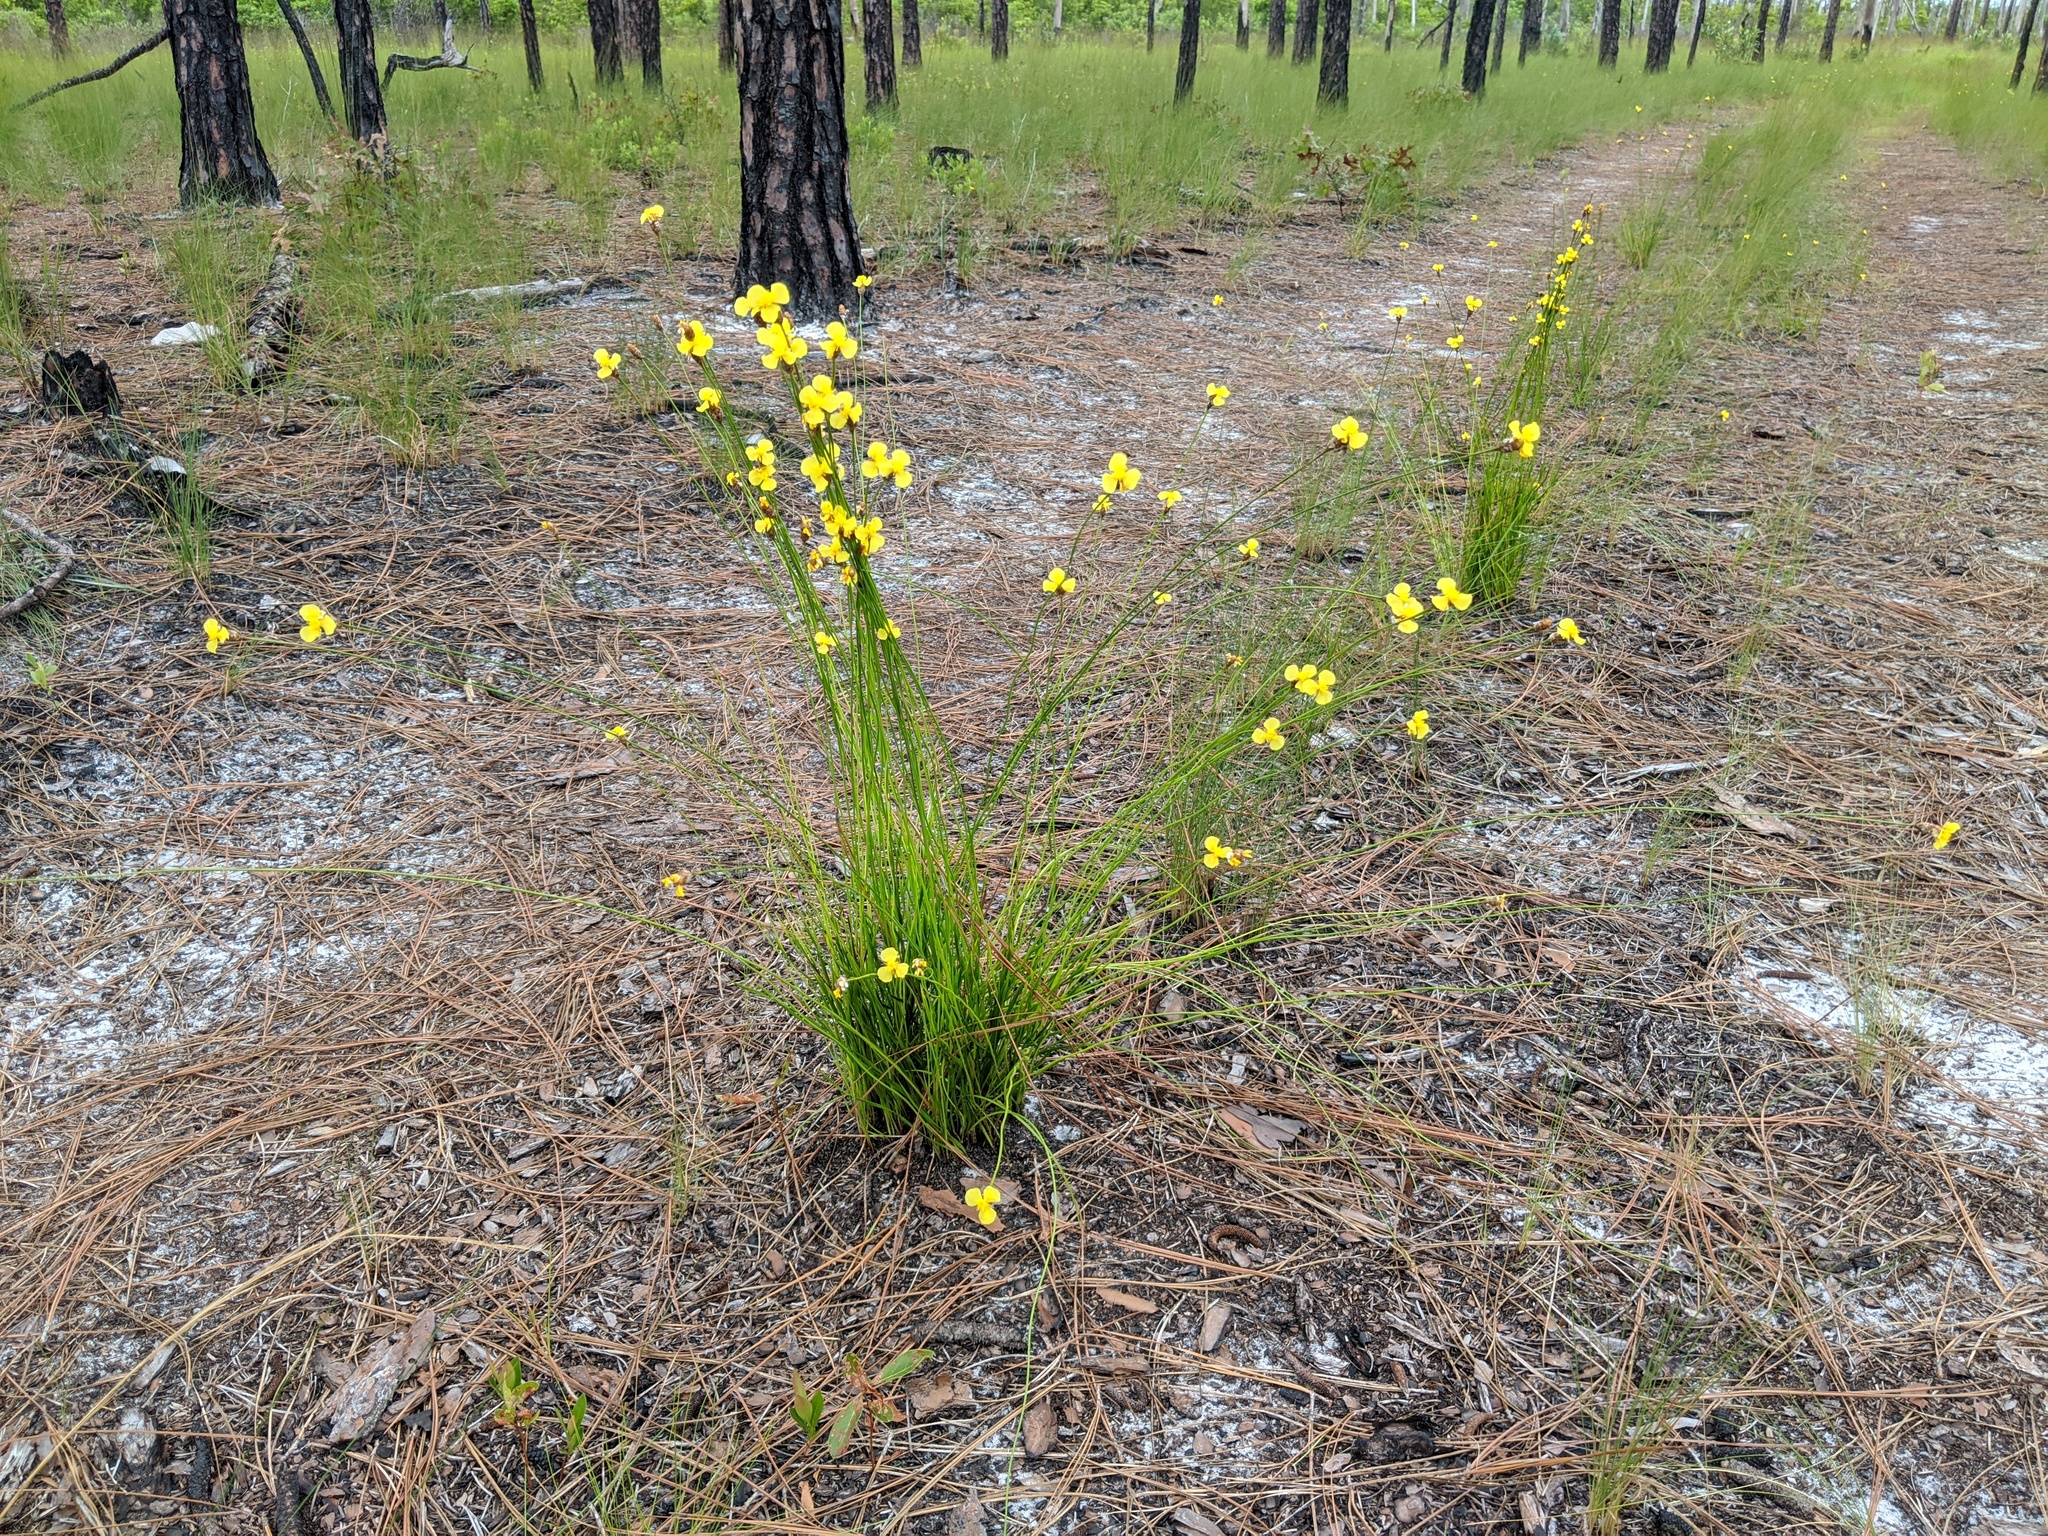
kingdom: Plantae
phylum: Tracheophyta
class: Liliopsida
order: Poales
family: Xyridaceae
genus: Xyris
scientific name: Xyris caroliniana
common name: Carolina yellow-eyed-grass
